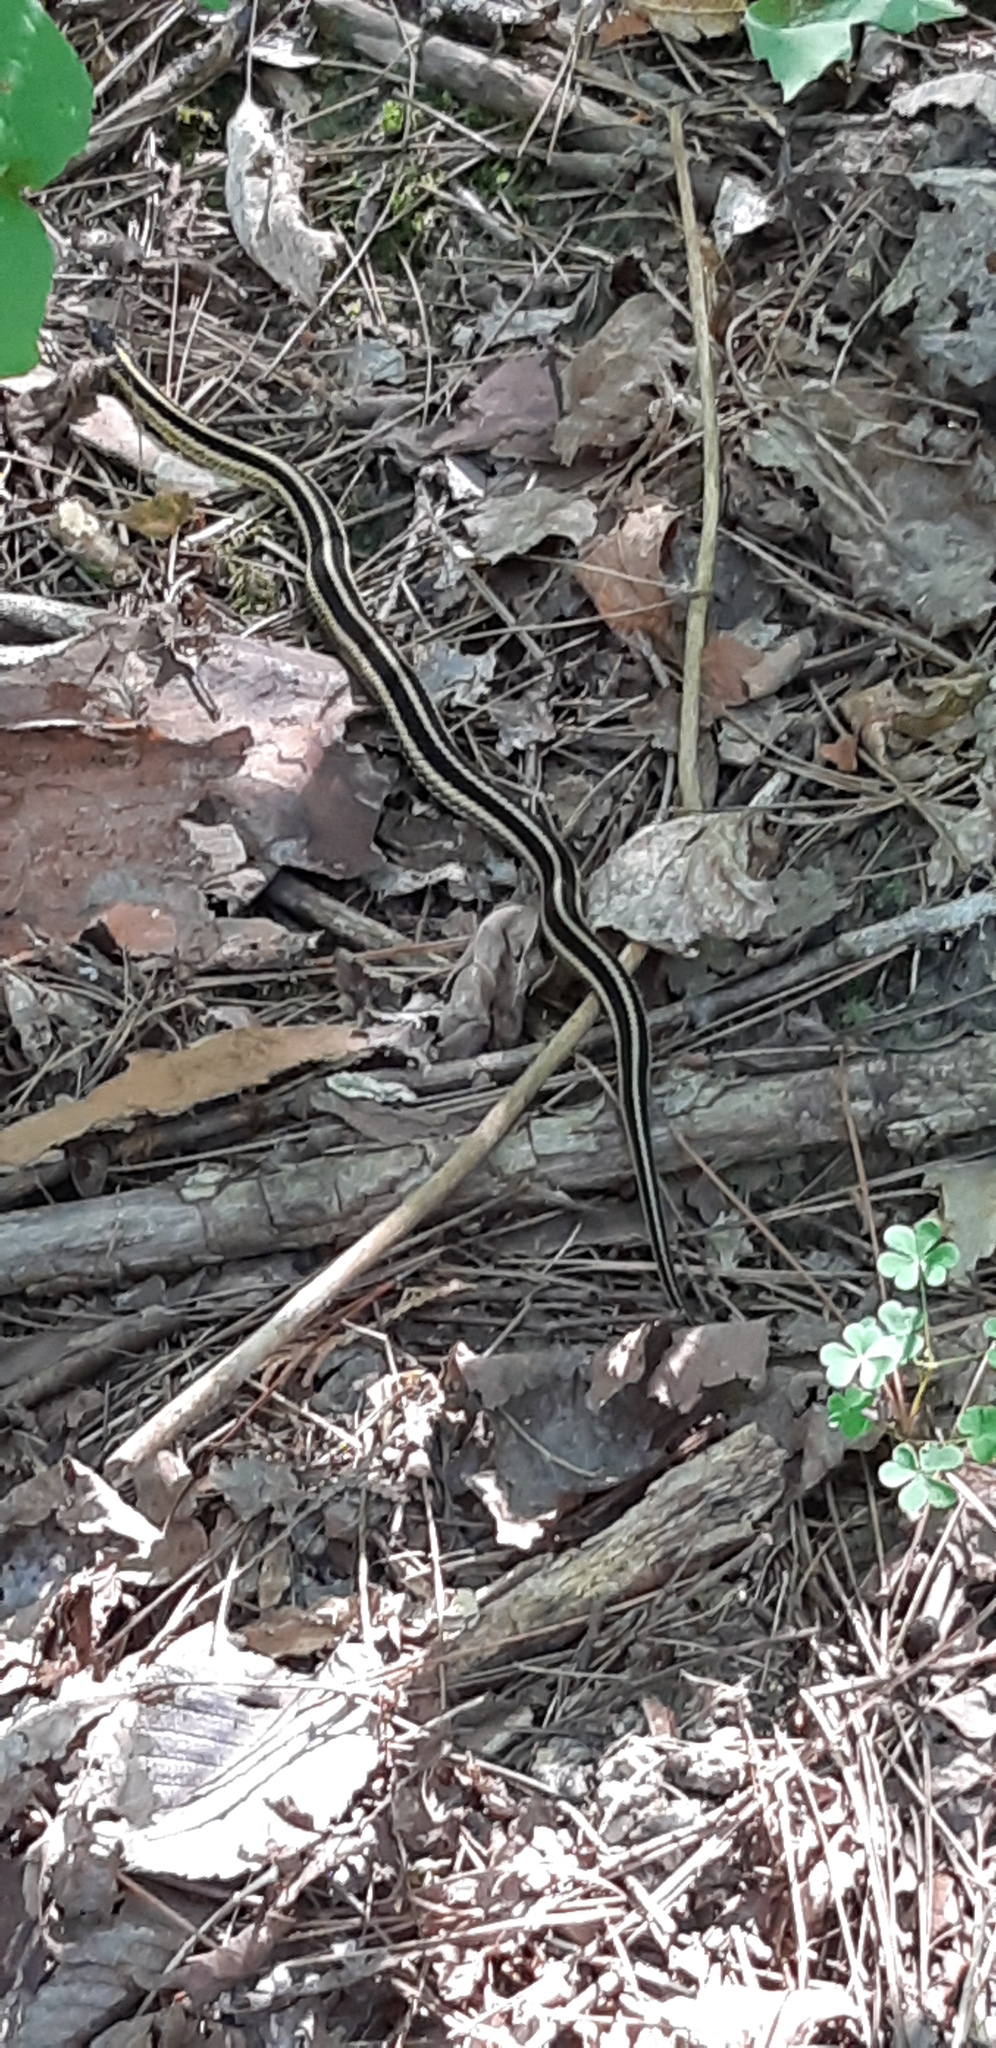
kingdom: Animalia
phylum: Chordata
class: Squamata
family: Colubridae
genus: Thamnophis
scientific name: Thamnophis sirtalis
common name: Common garter snake
